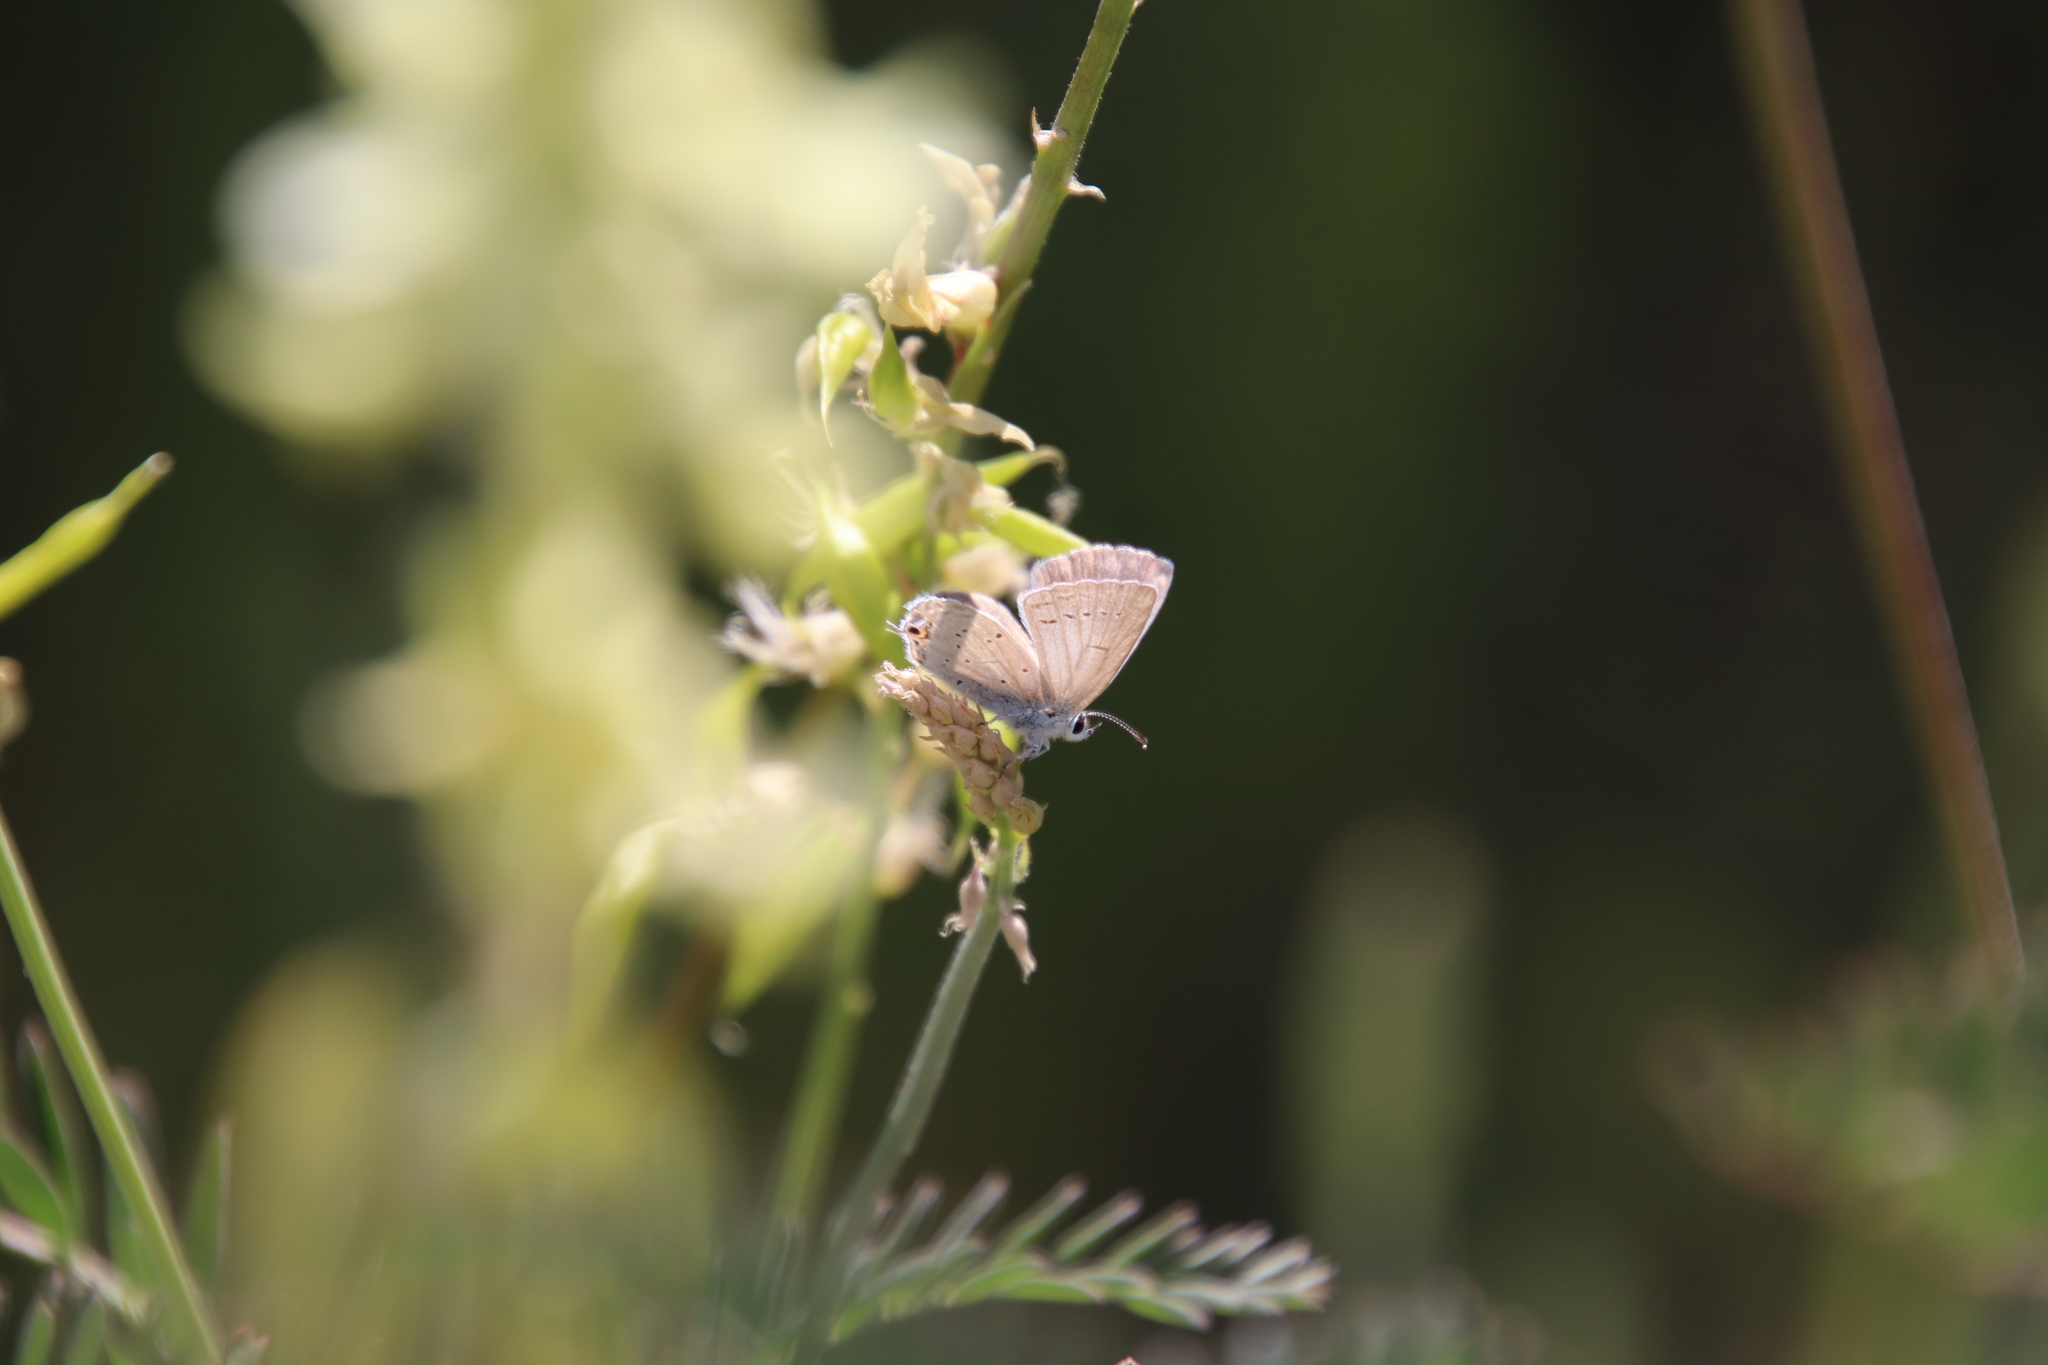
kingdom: Animalia
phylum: Arthropoda
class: Insecta
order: Lepidoptera
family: Lycaenidae
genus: Elkalyce
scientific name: Elkalyce amyntula
